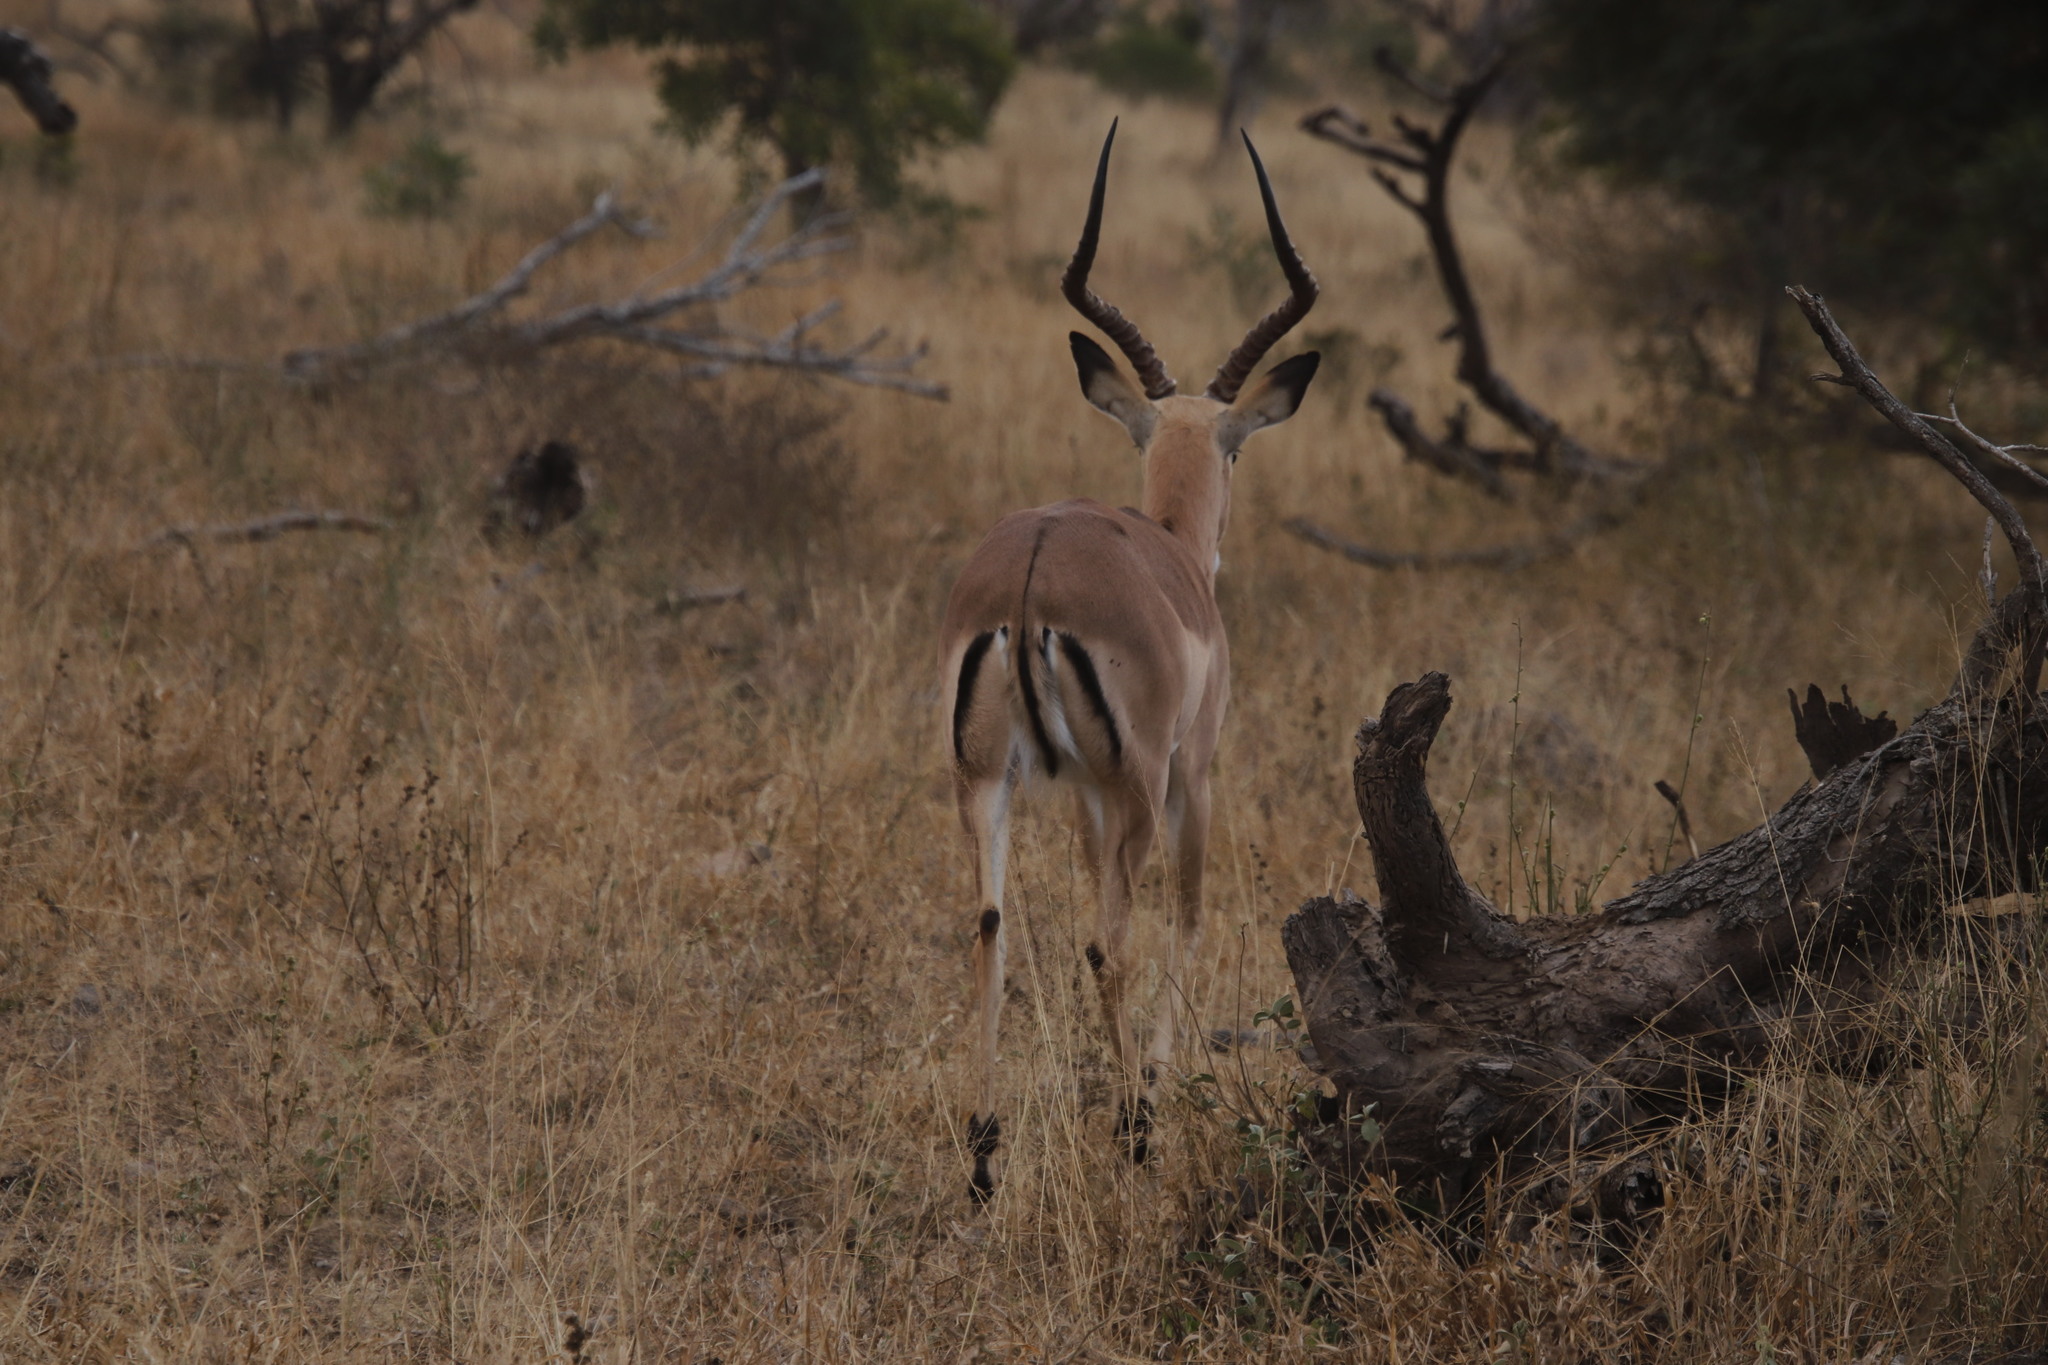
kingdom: Animalia
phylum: Chordata
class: Mammalia
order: Artiodactyla
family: Bovidae
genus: Aepyceros
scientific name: Aepyceros melampus
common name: Impala
